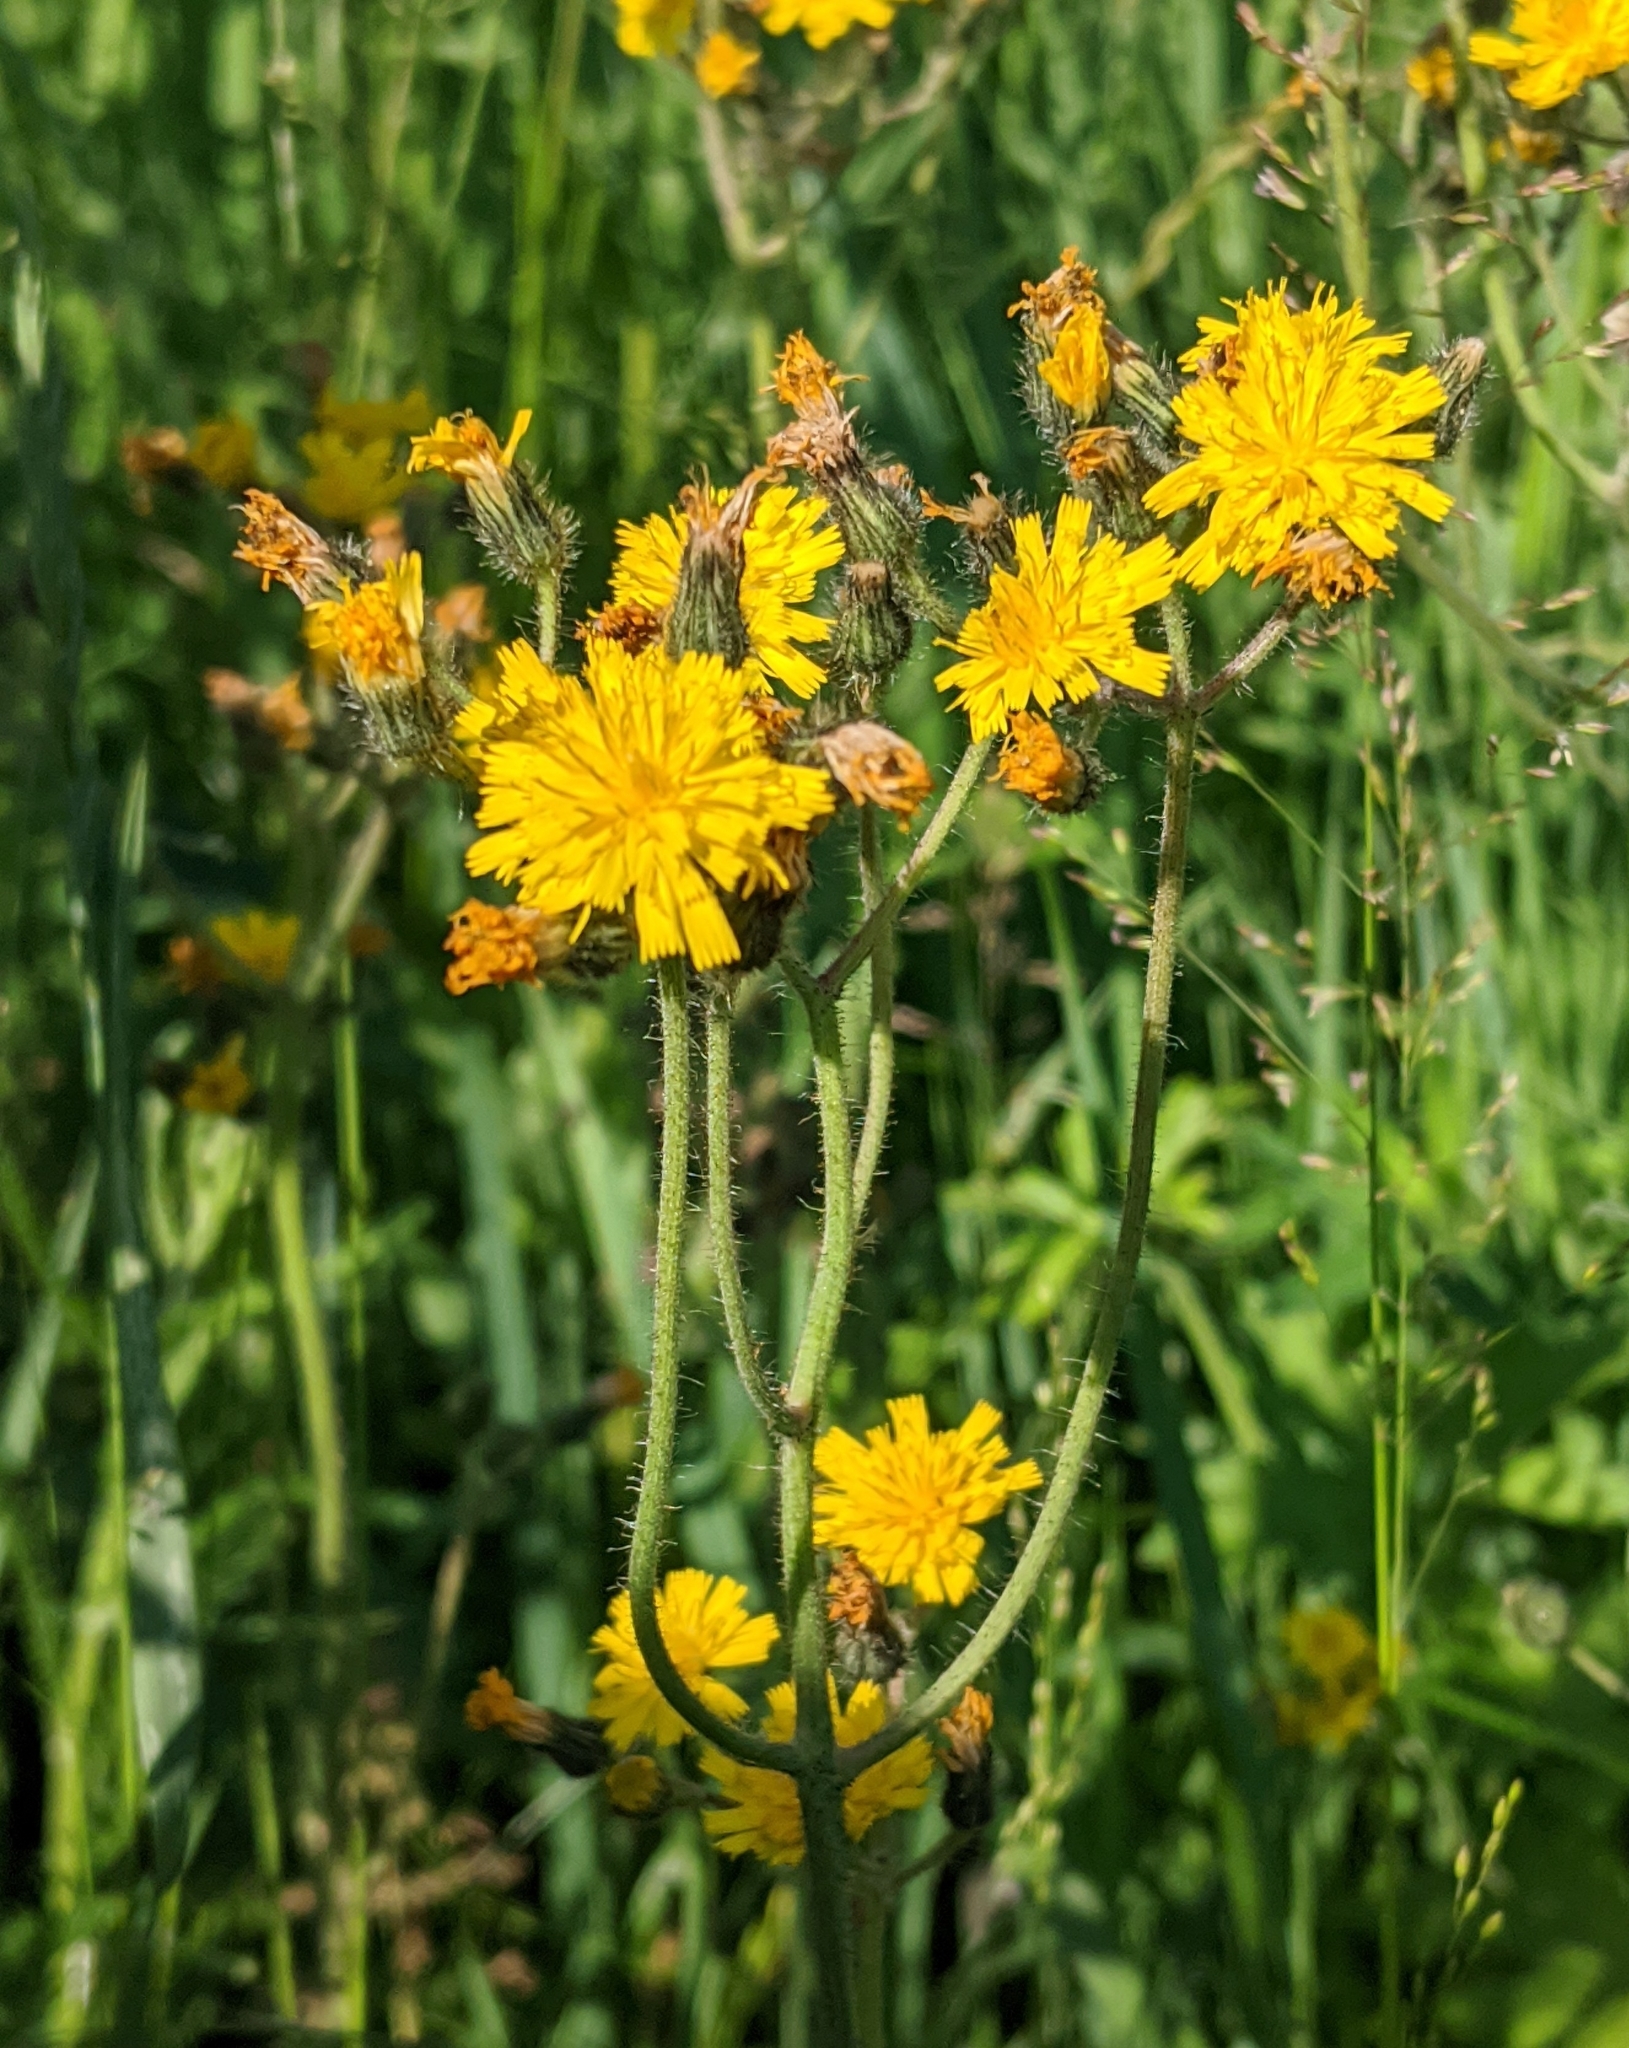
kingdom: Plantae
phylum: Tracheophyta
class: Magnoliopsida
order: Asterales
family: Asteraceae
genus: Pilosella
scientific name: Pilosella
